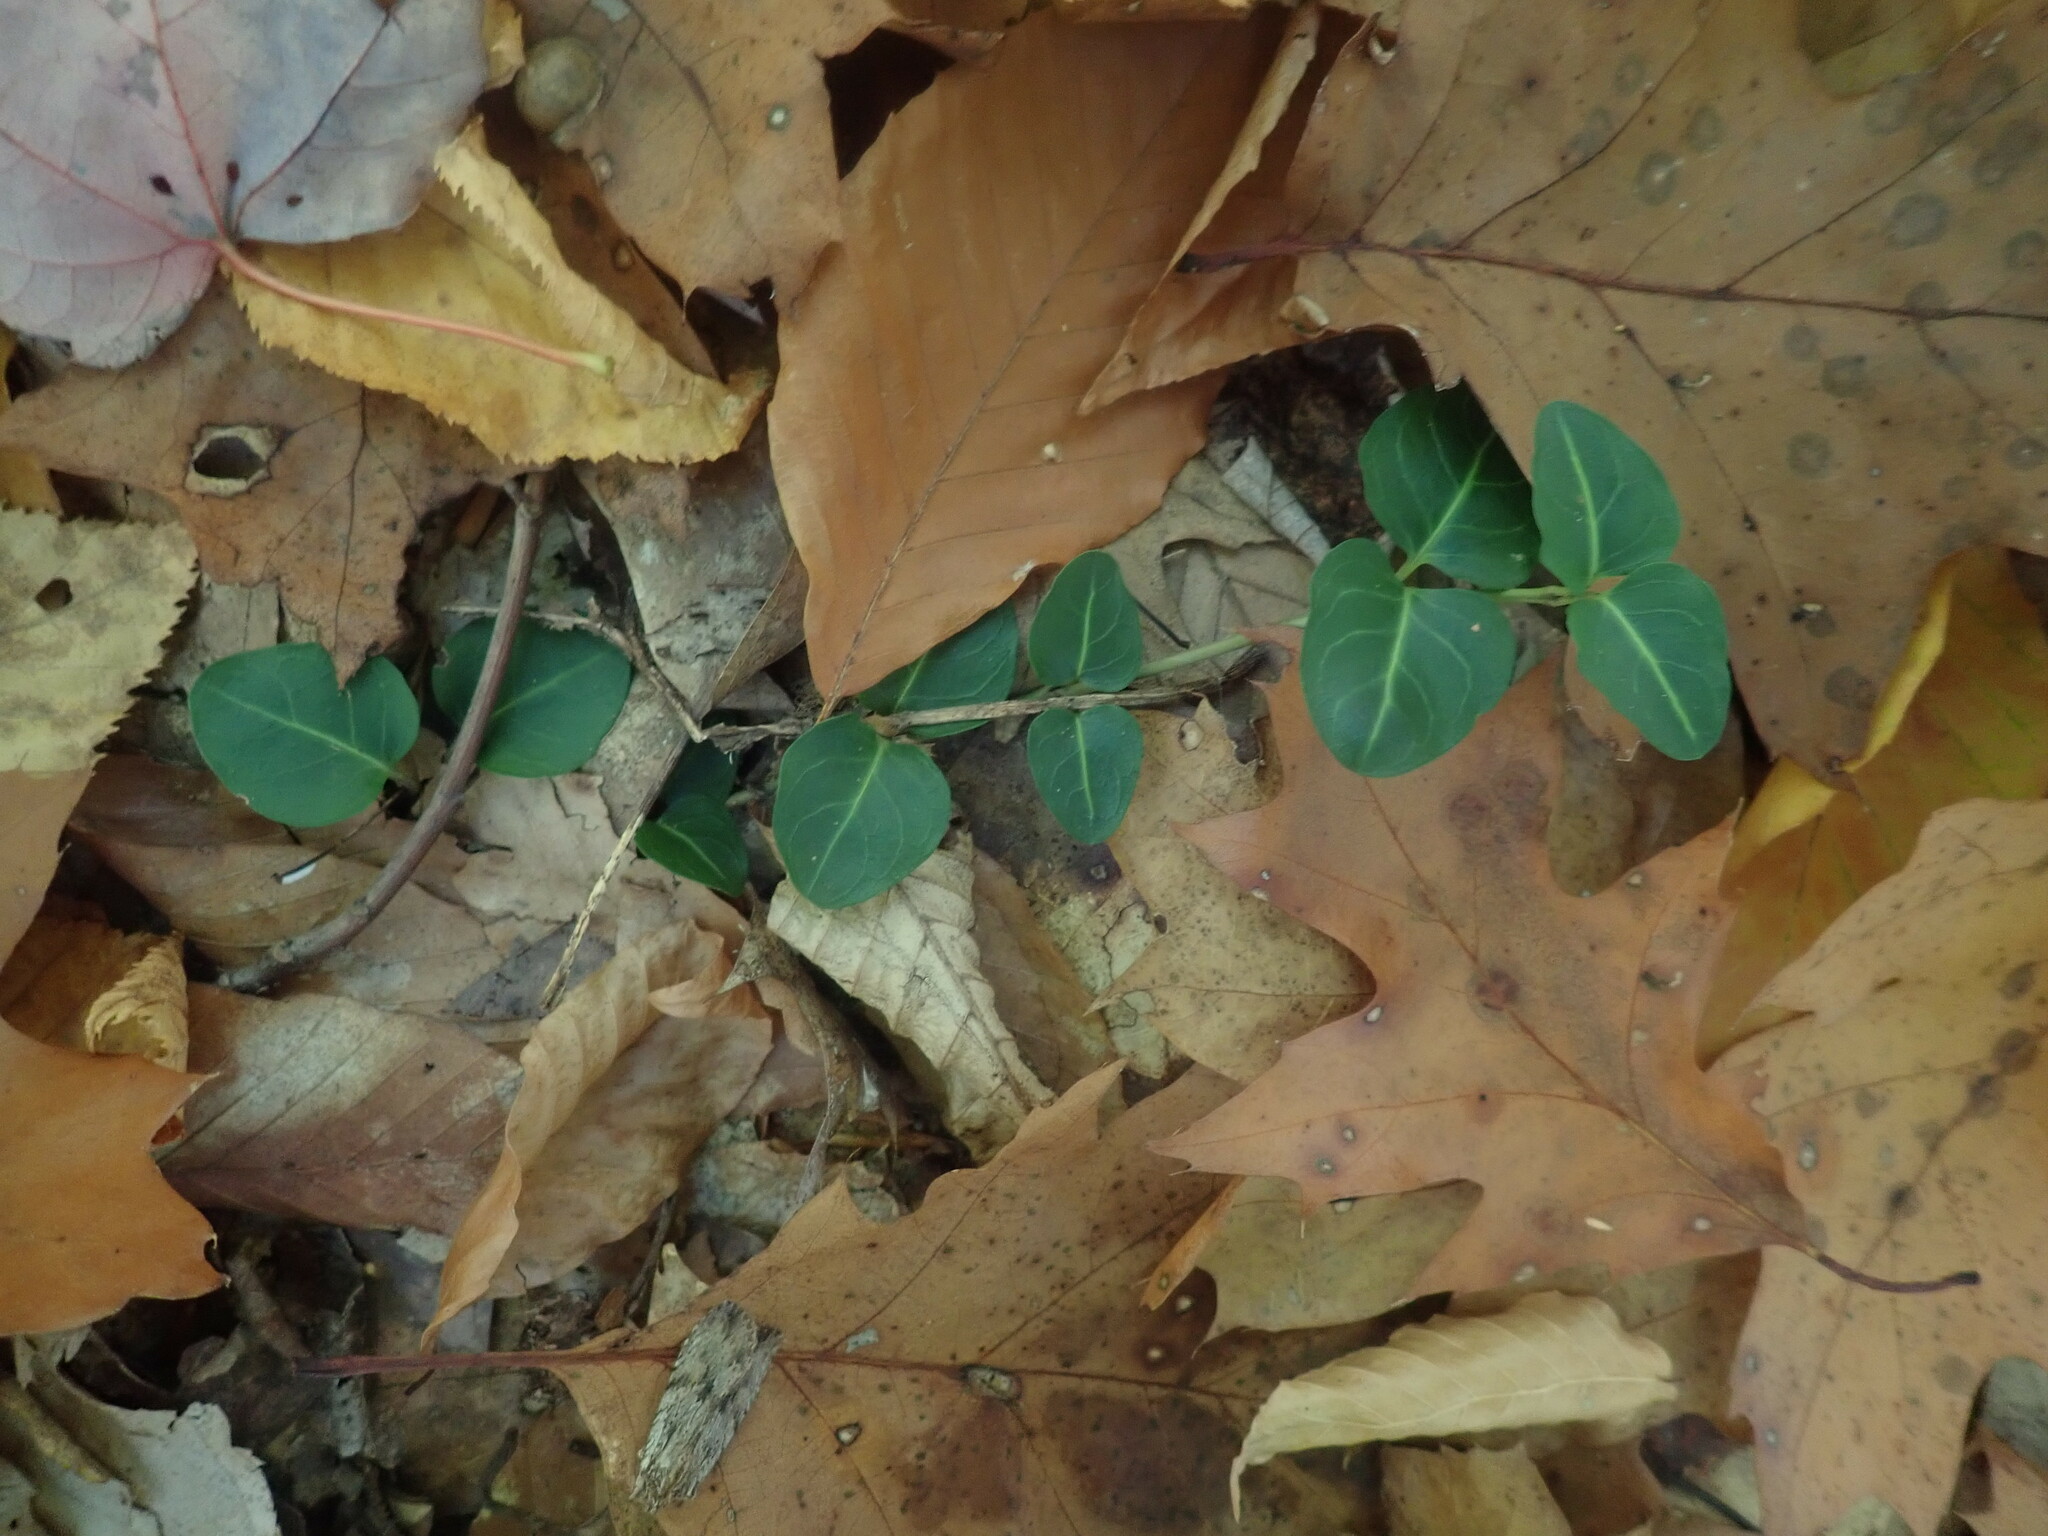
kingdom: Plantae
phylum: Tracheophyta
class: Magnoliopsida
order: Gentianales
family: Rubiaceae
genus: Mitchella
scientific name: Mitchella repens
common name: Partridge-berry
